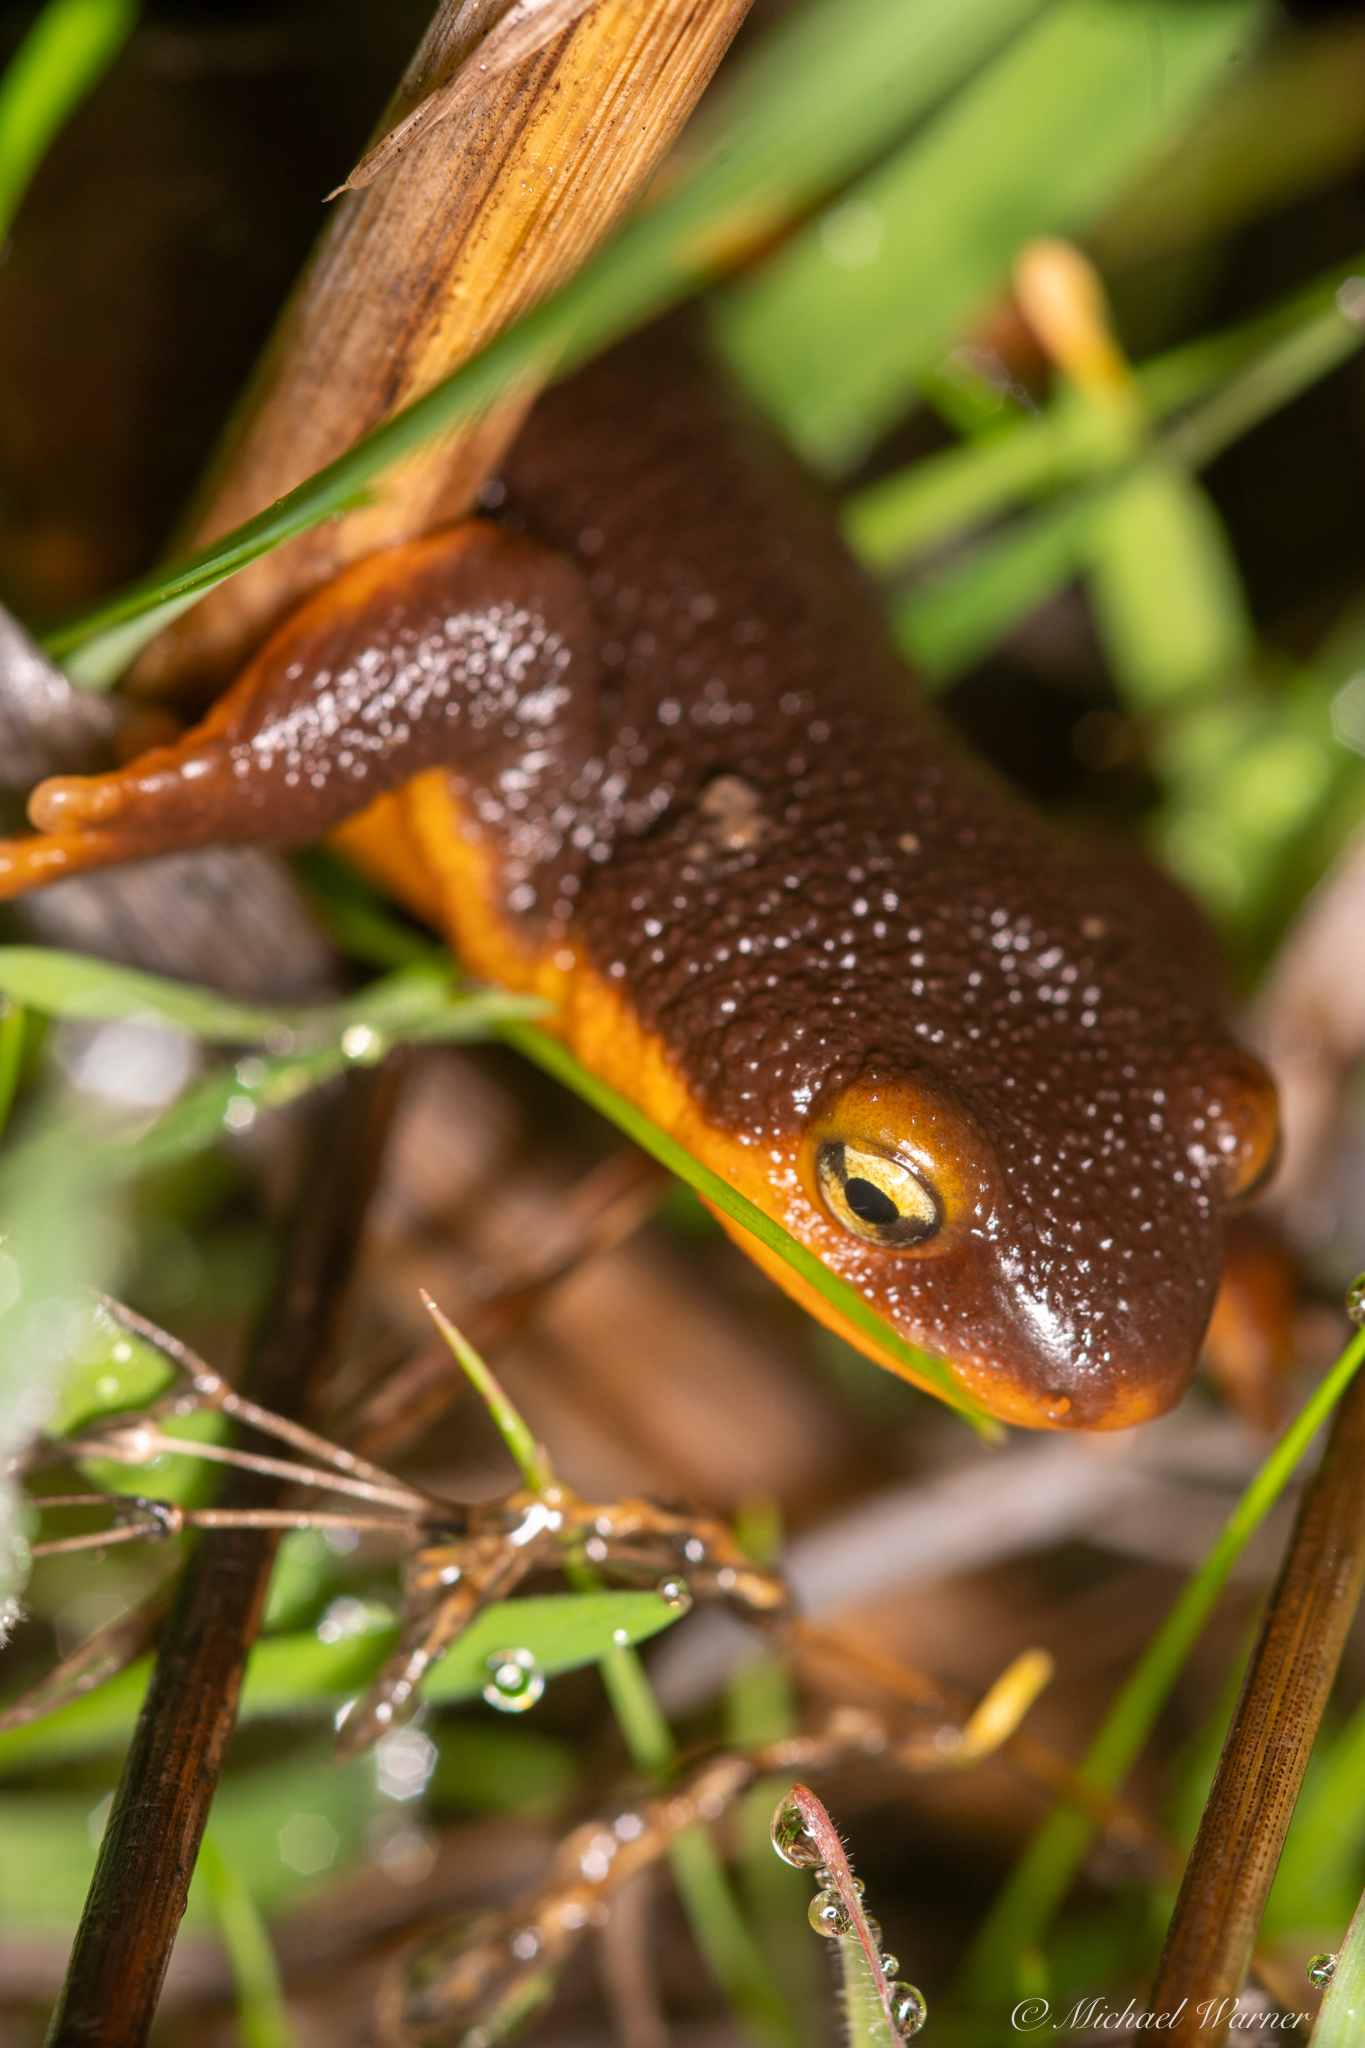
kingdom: Animalia
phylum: Chordata
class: Amphibia
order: Caudata
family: Salamandridae
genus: Taricha
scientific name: Taricha torosa
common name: California newt
